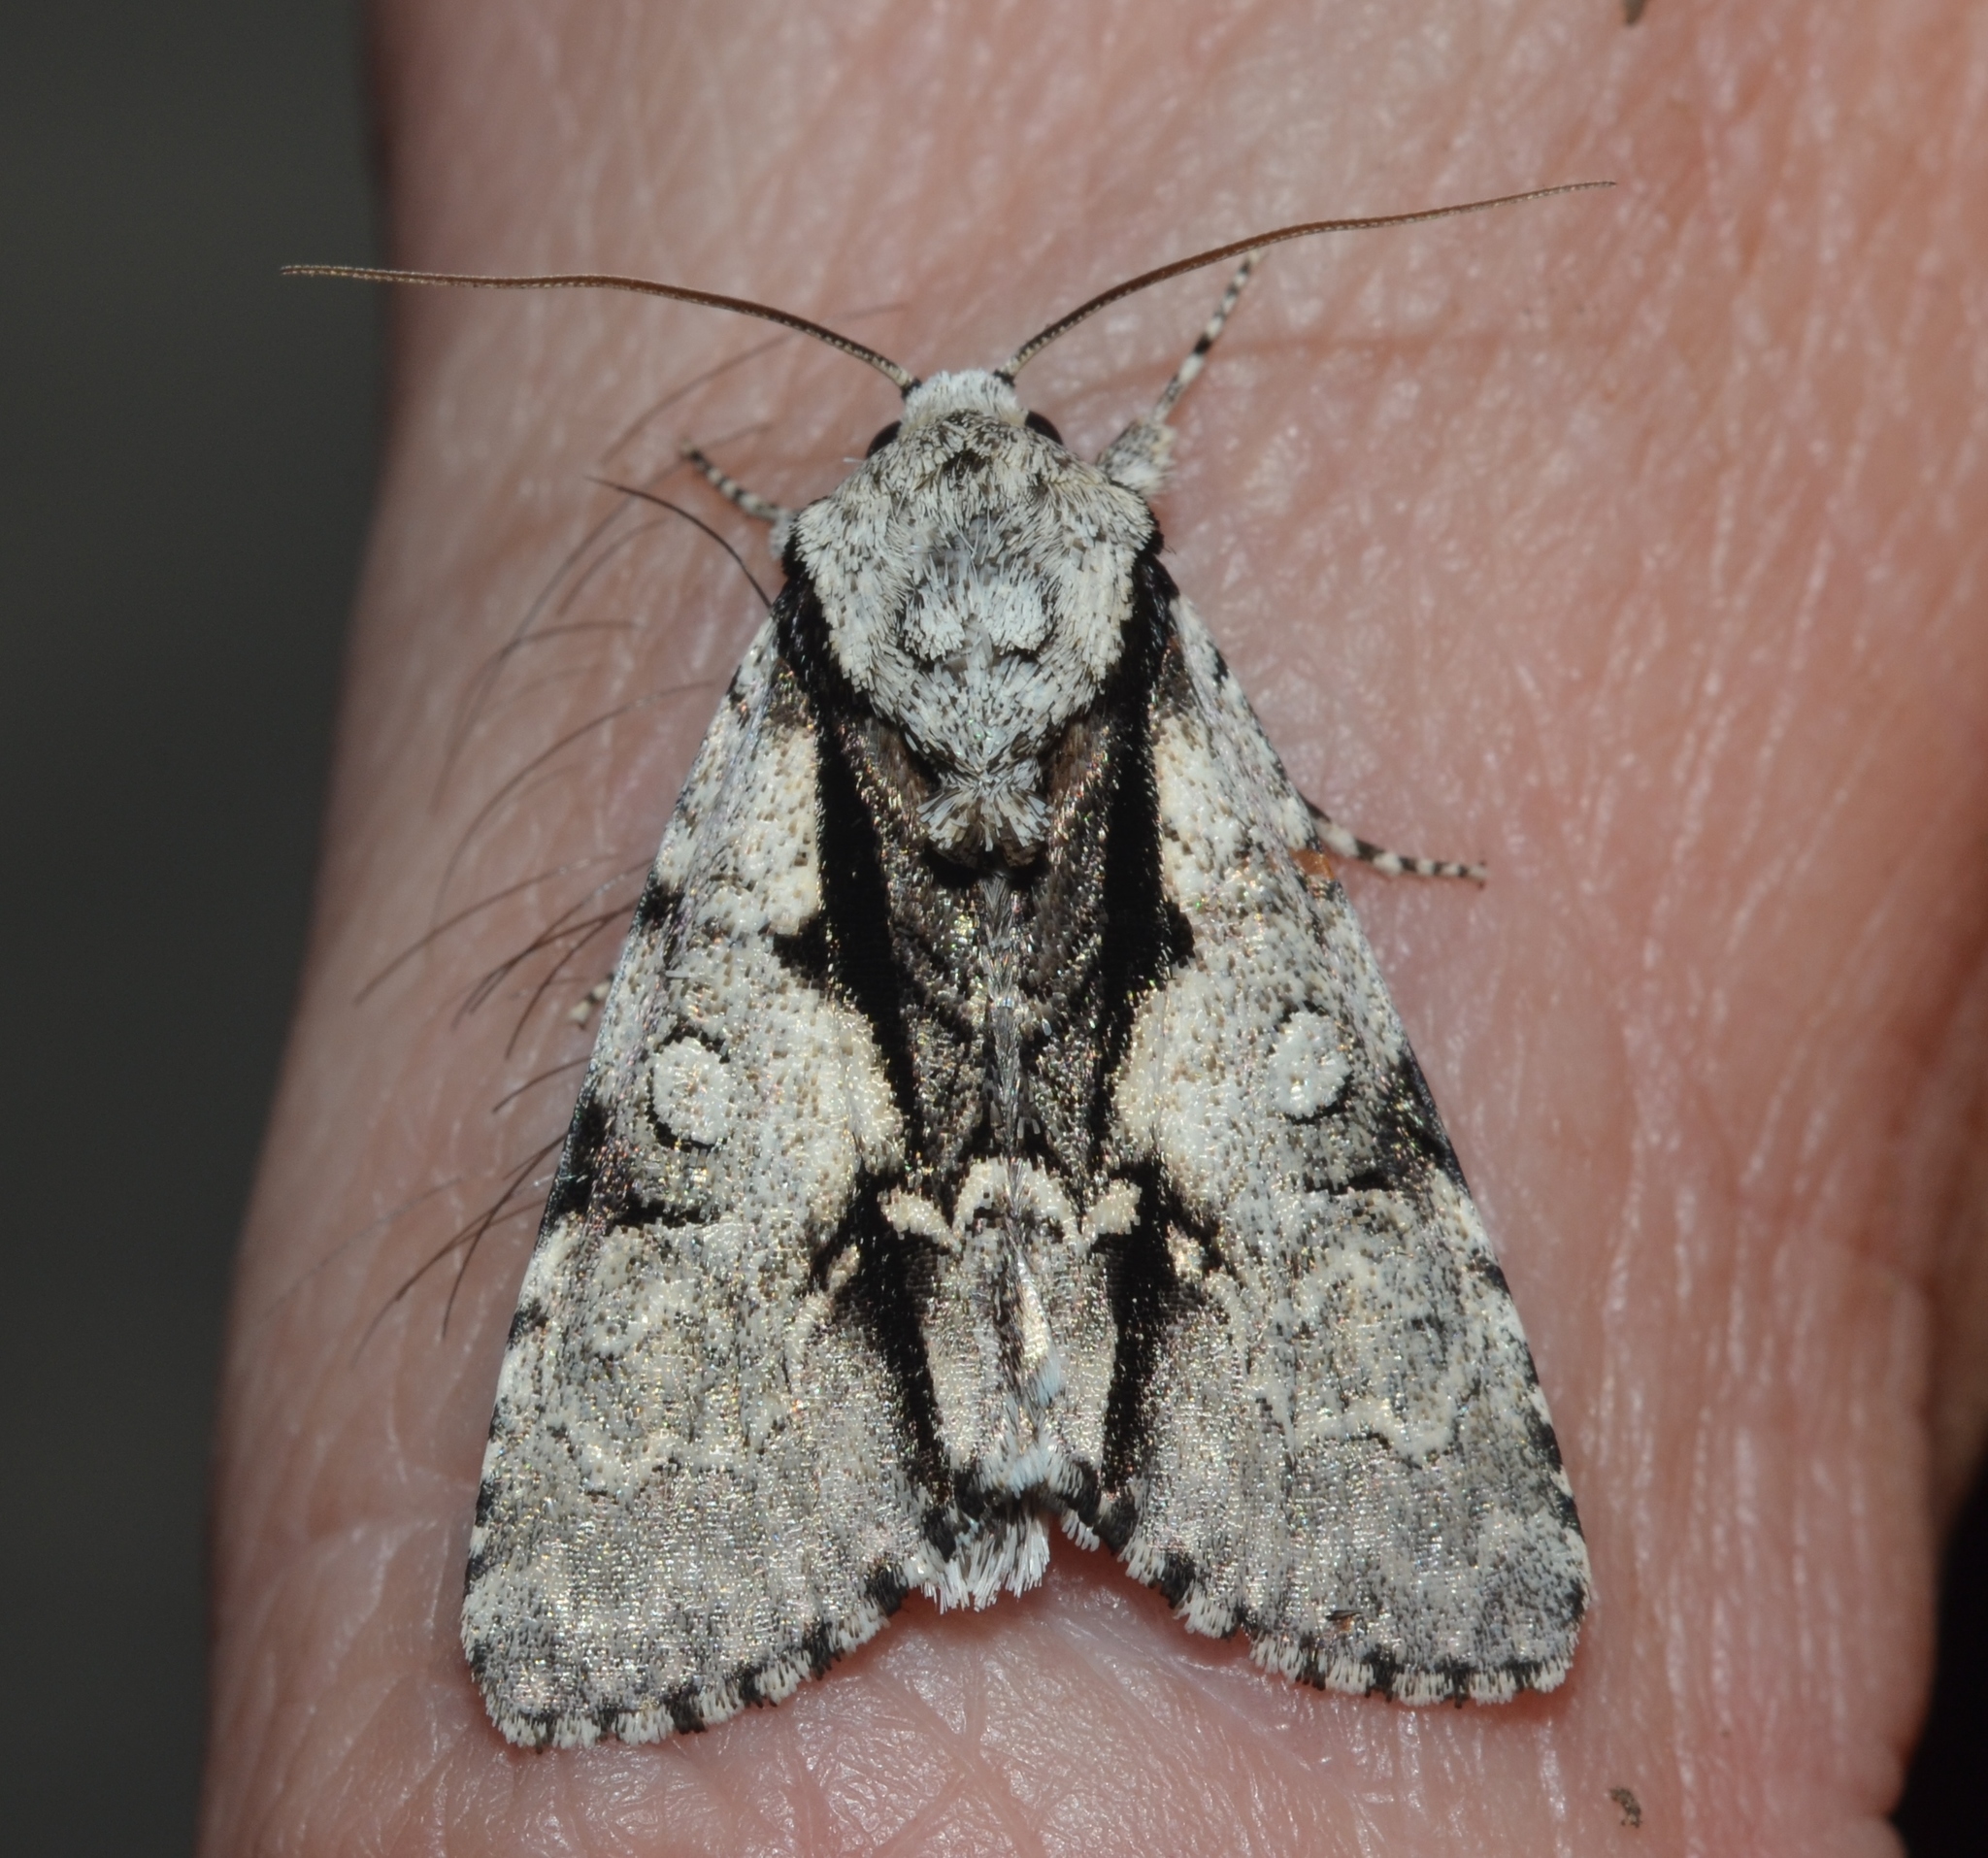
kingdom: Animalia
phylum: Arthropoda
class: Insecta
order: Lepidoptera
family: Noctuidae
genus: Acronicta
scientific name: Acronicta funeralis
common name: Funerary dagger
